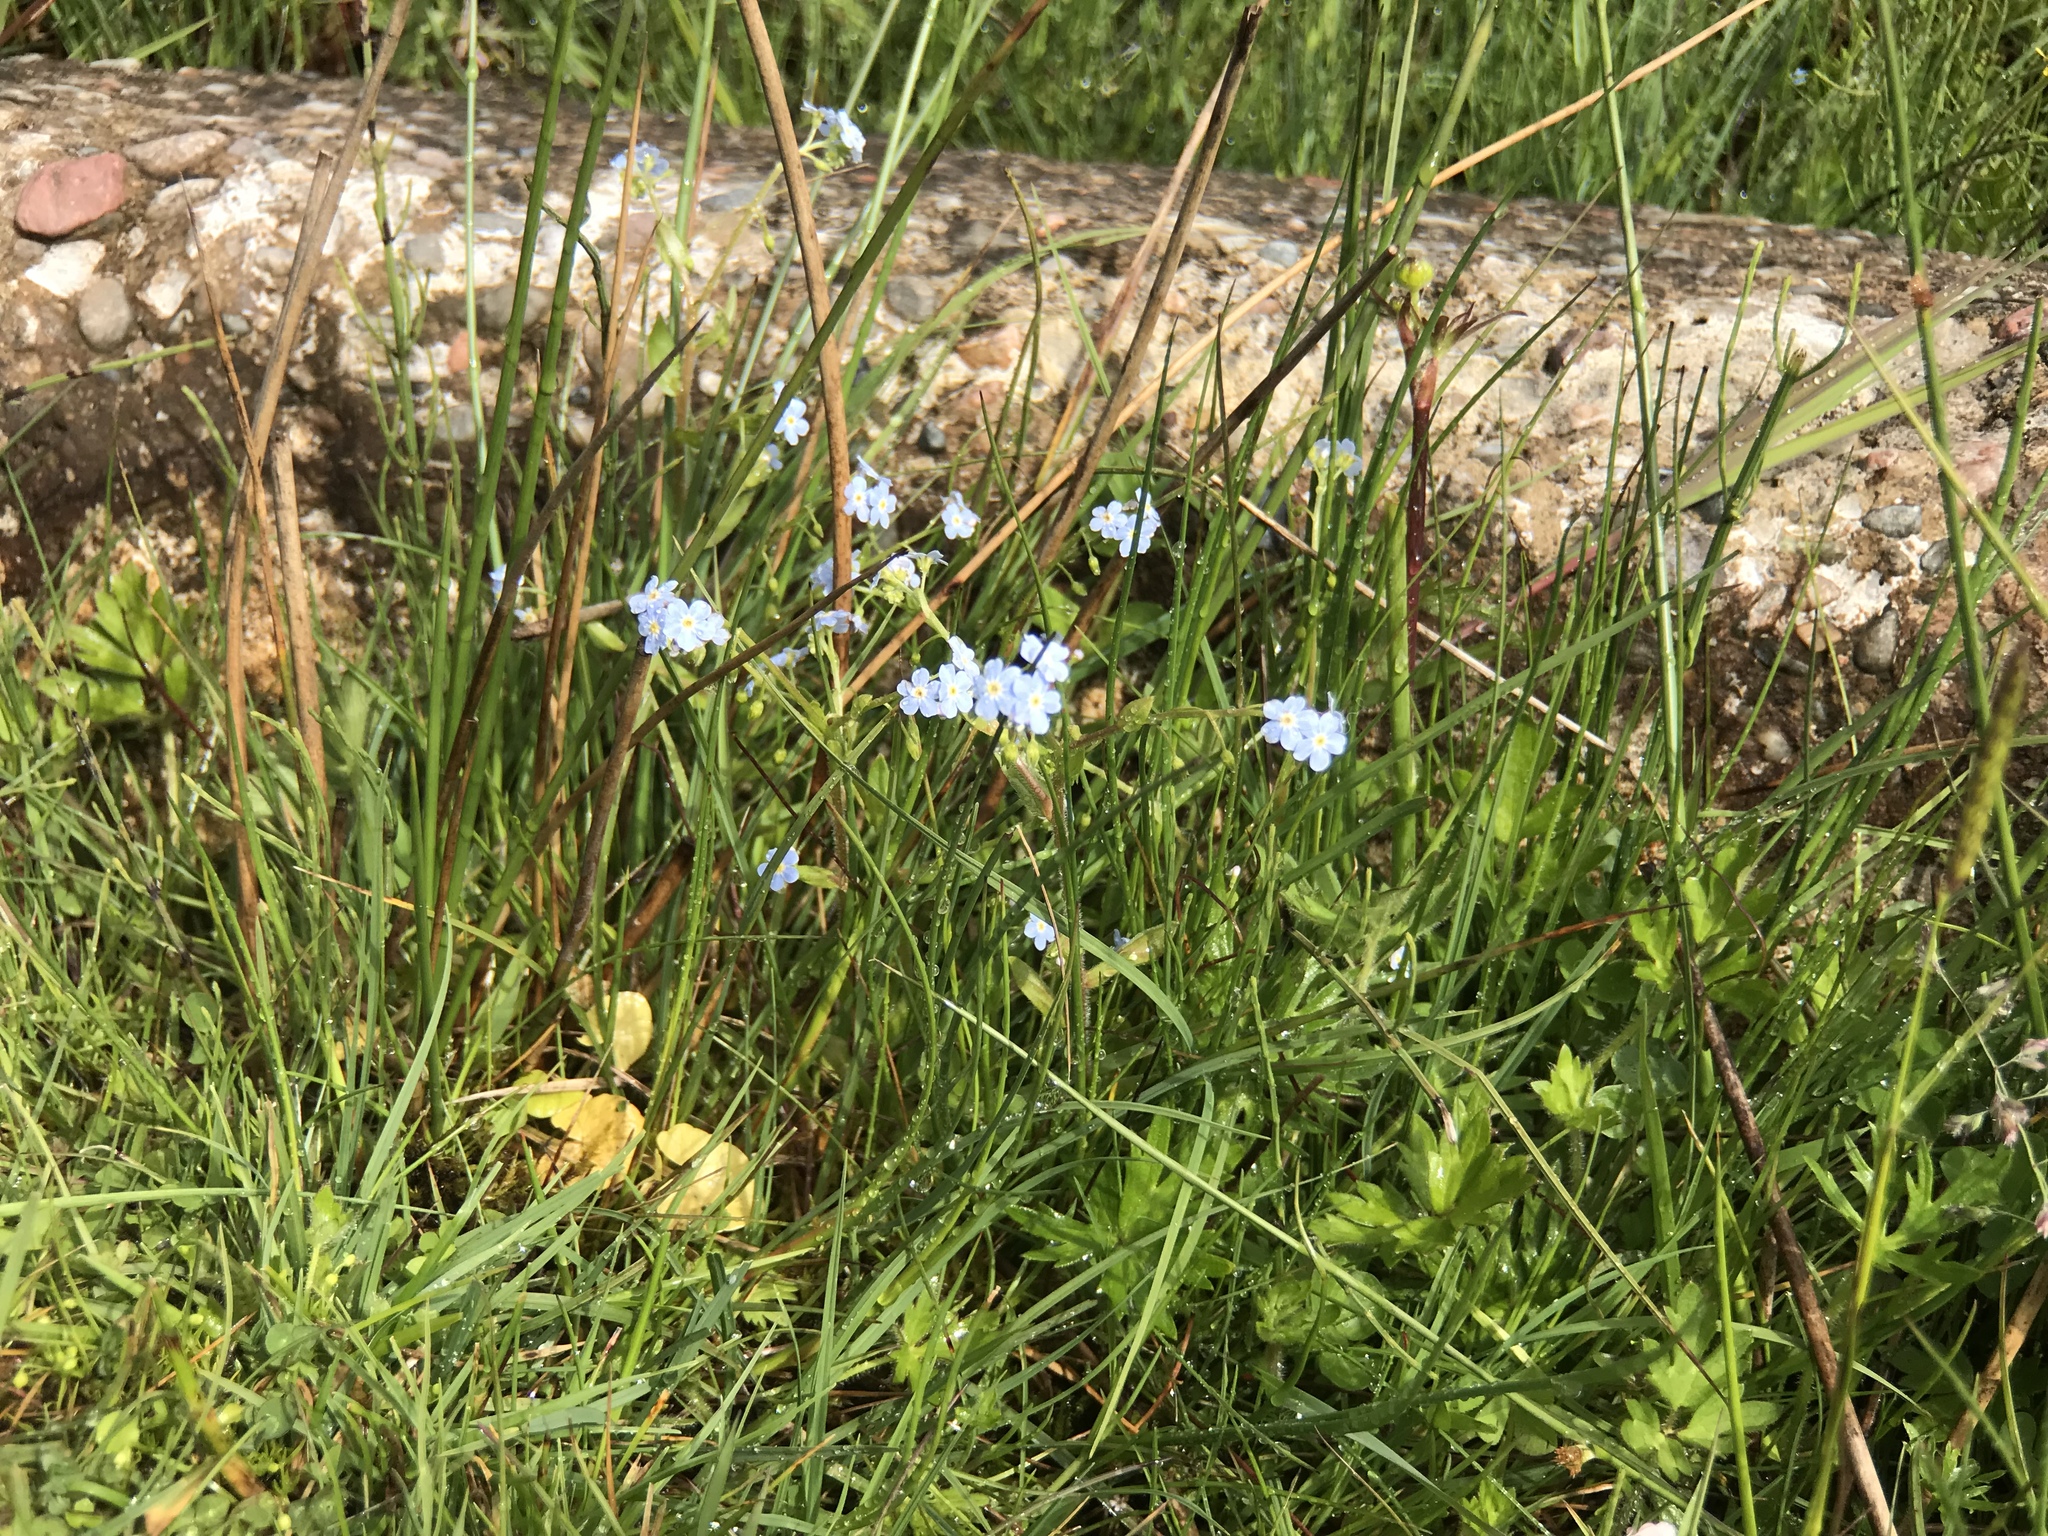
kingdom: Plantae
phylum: Tracheophyta
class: Magnoliopsida
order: Boraginales
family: Boraginaceae
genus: Myosotis
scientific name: Myosotis scorpioides
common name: Water forget-me-not
